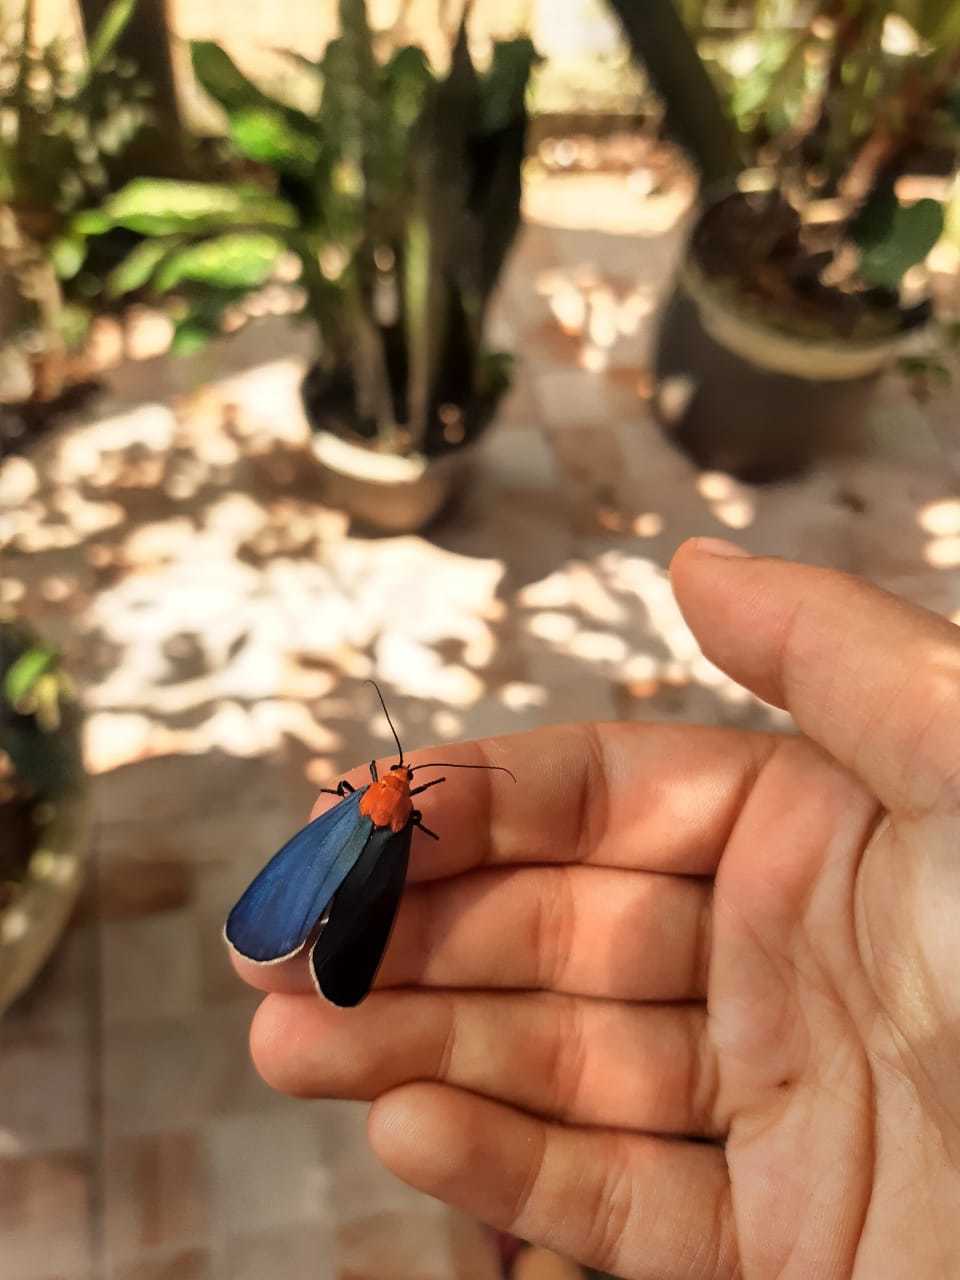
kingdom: Animalia
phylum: Arthropoda
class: Insecta
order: Lepidoptera
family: Erebidae
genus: Apistosia
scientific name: Apistosia judas
